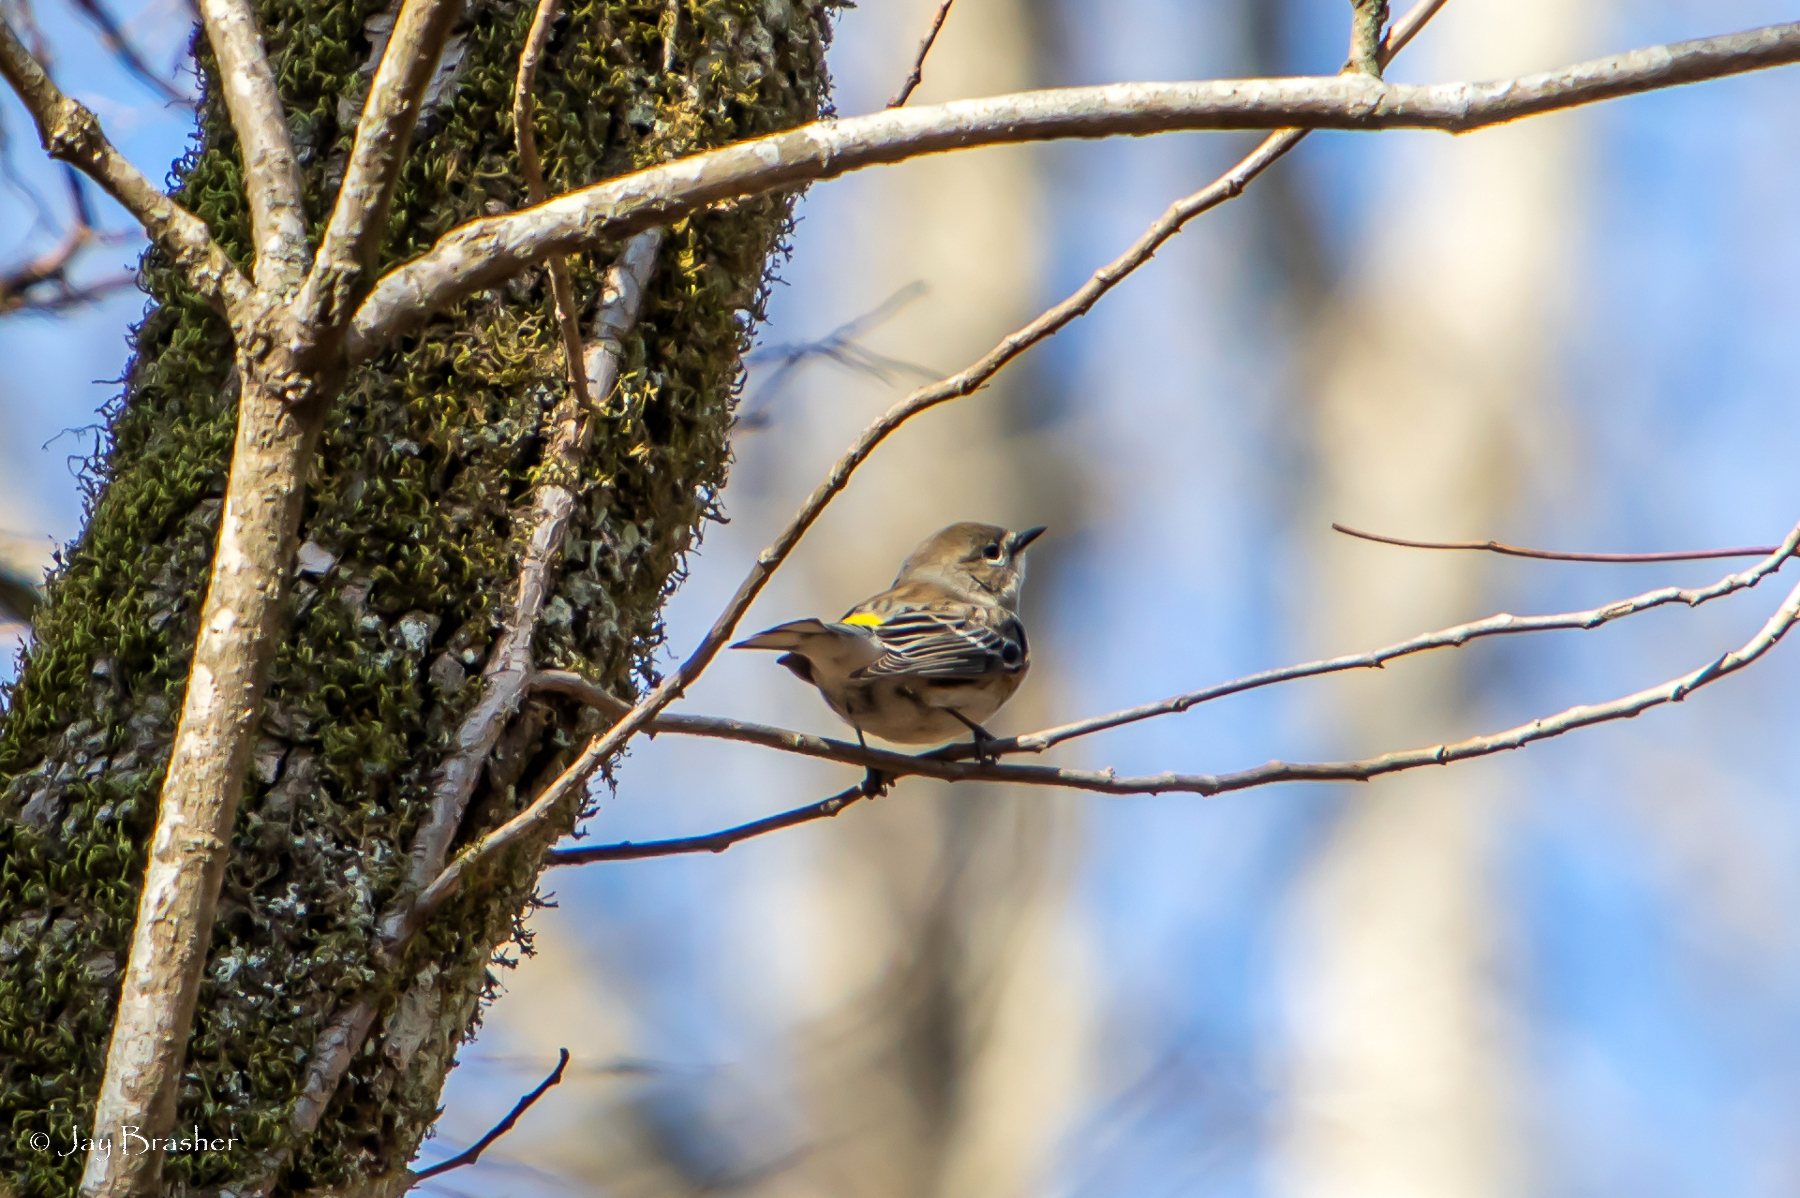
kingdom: Animalia
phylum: Chordata
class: Aves
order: Passeriformes
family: Parulidae
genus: Setophaga
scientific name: Setophaga coronata
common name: Myrtle warbler
